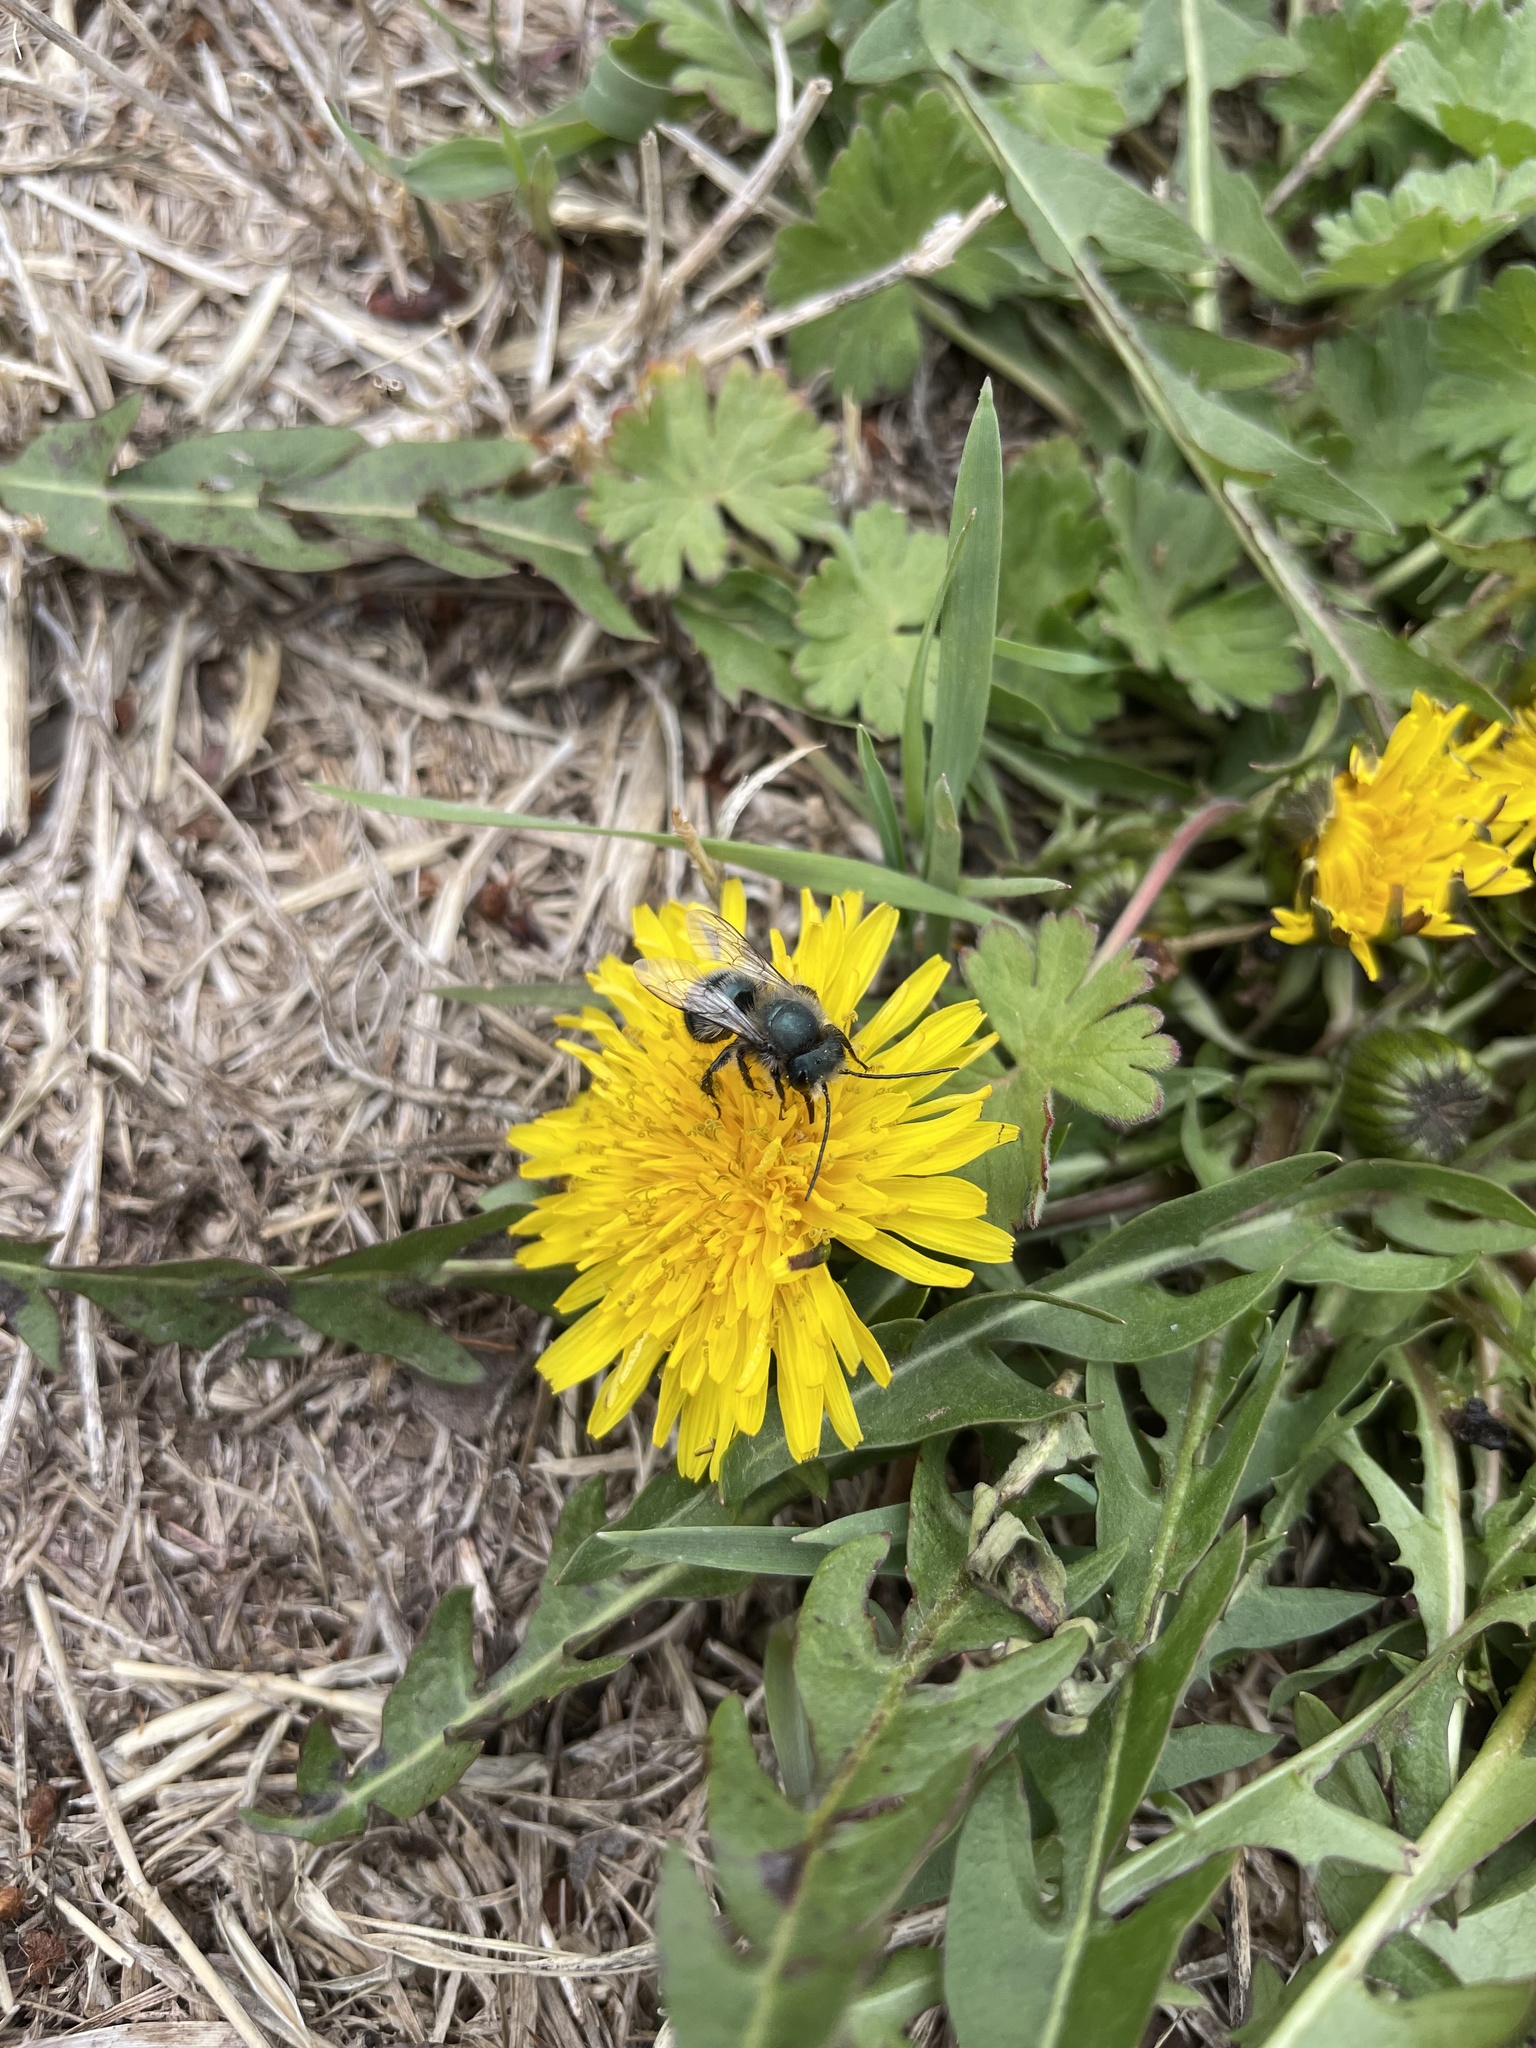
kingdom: Animalia
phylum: Arthropoda
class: Insecta
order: Hymenoptera
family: Megachilidae
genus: Osmia
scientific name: Osmia lignaria
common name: Blue orchard bee
